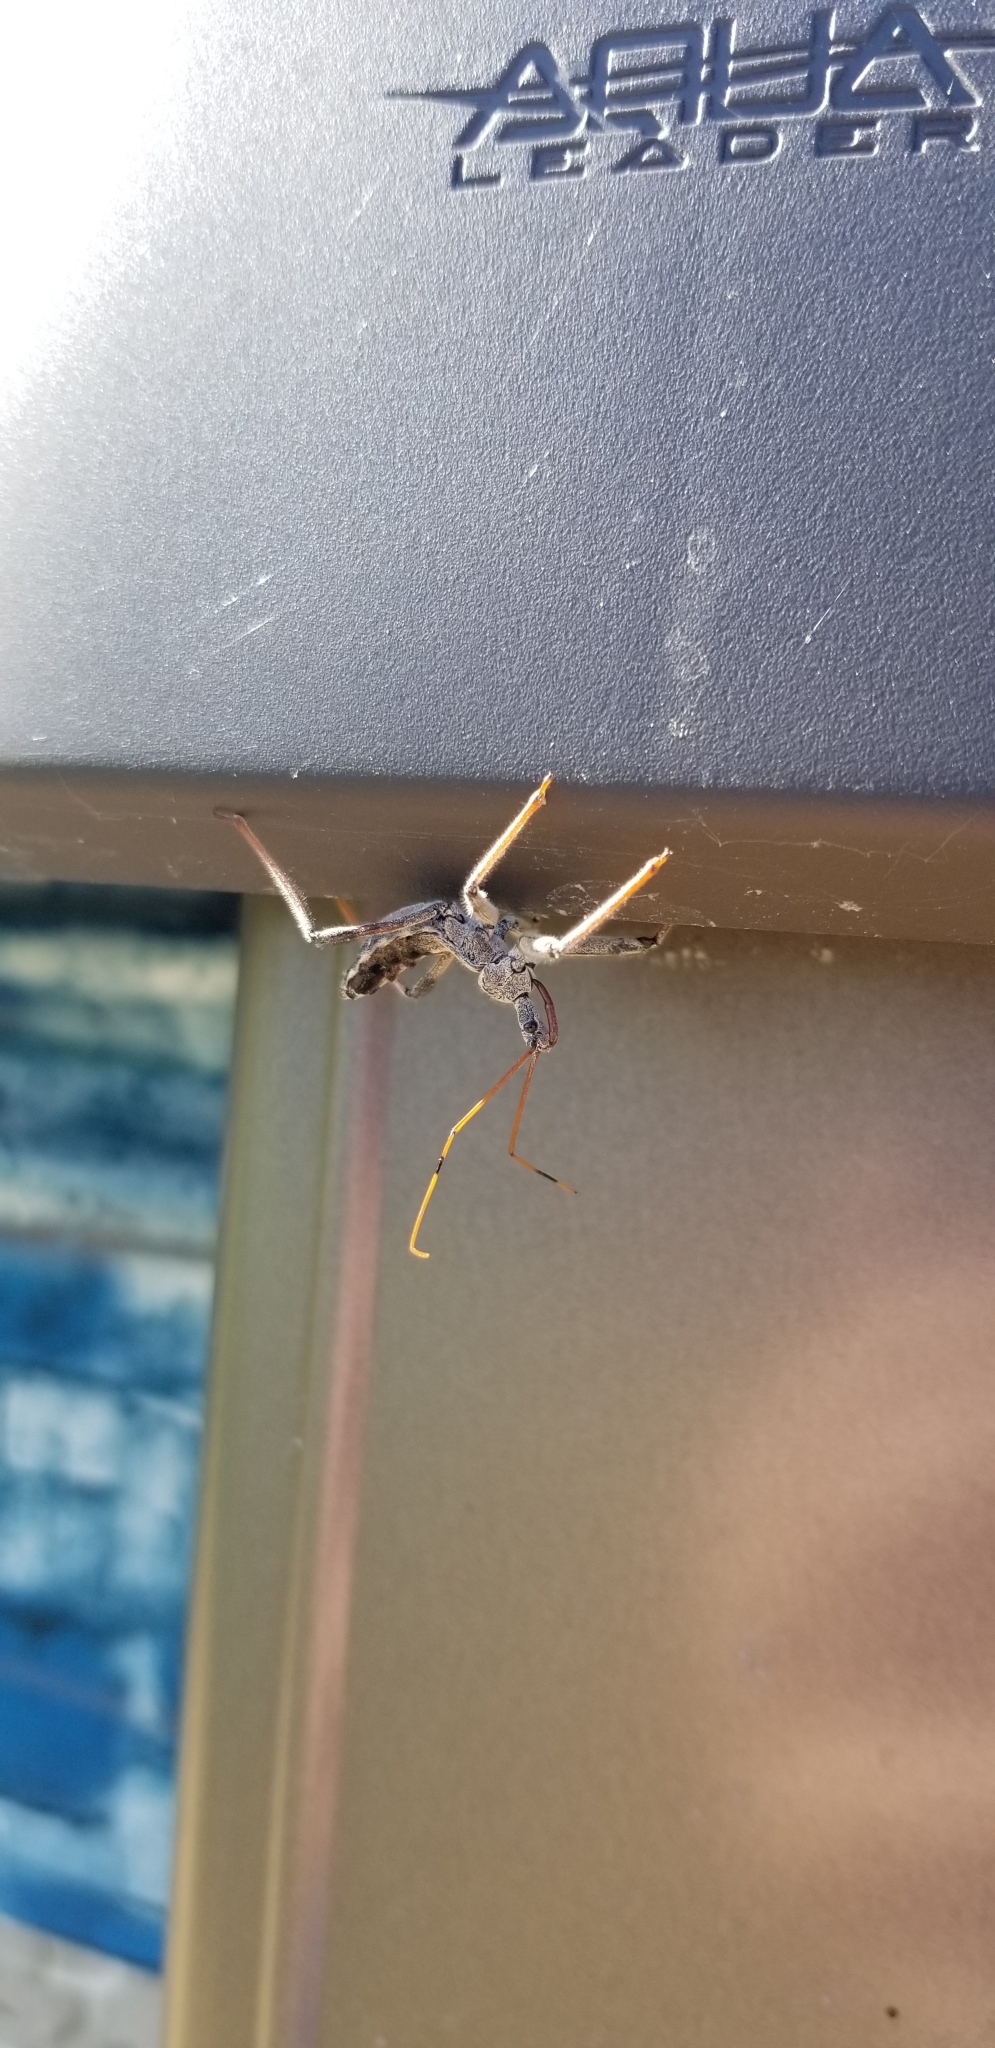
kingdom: Animalia
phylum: Arthropoda
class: Insecta
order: Hemiptera
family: Reduviidae
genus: Arilus
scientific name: Arilus cristatus
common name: North american wheel bug
